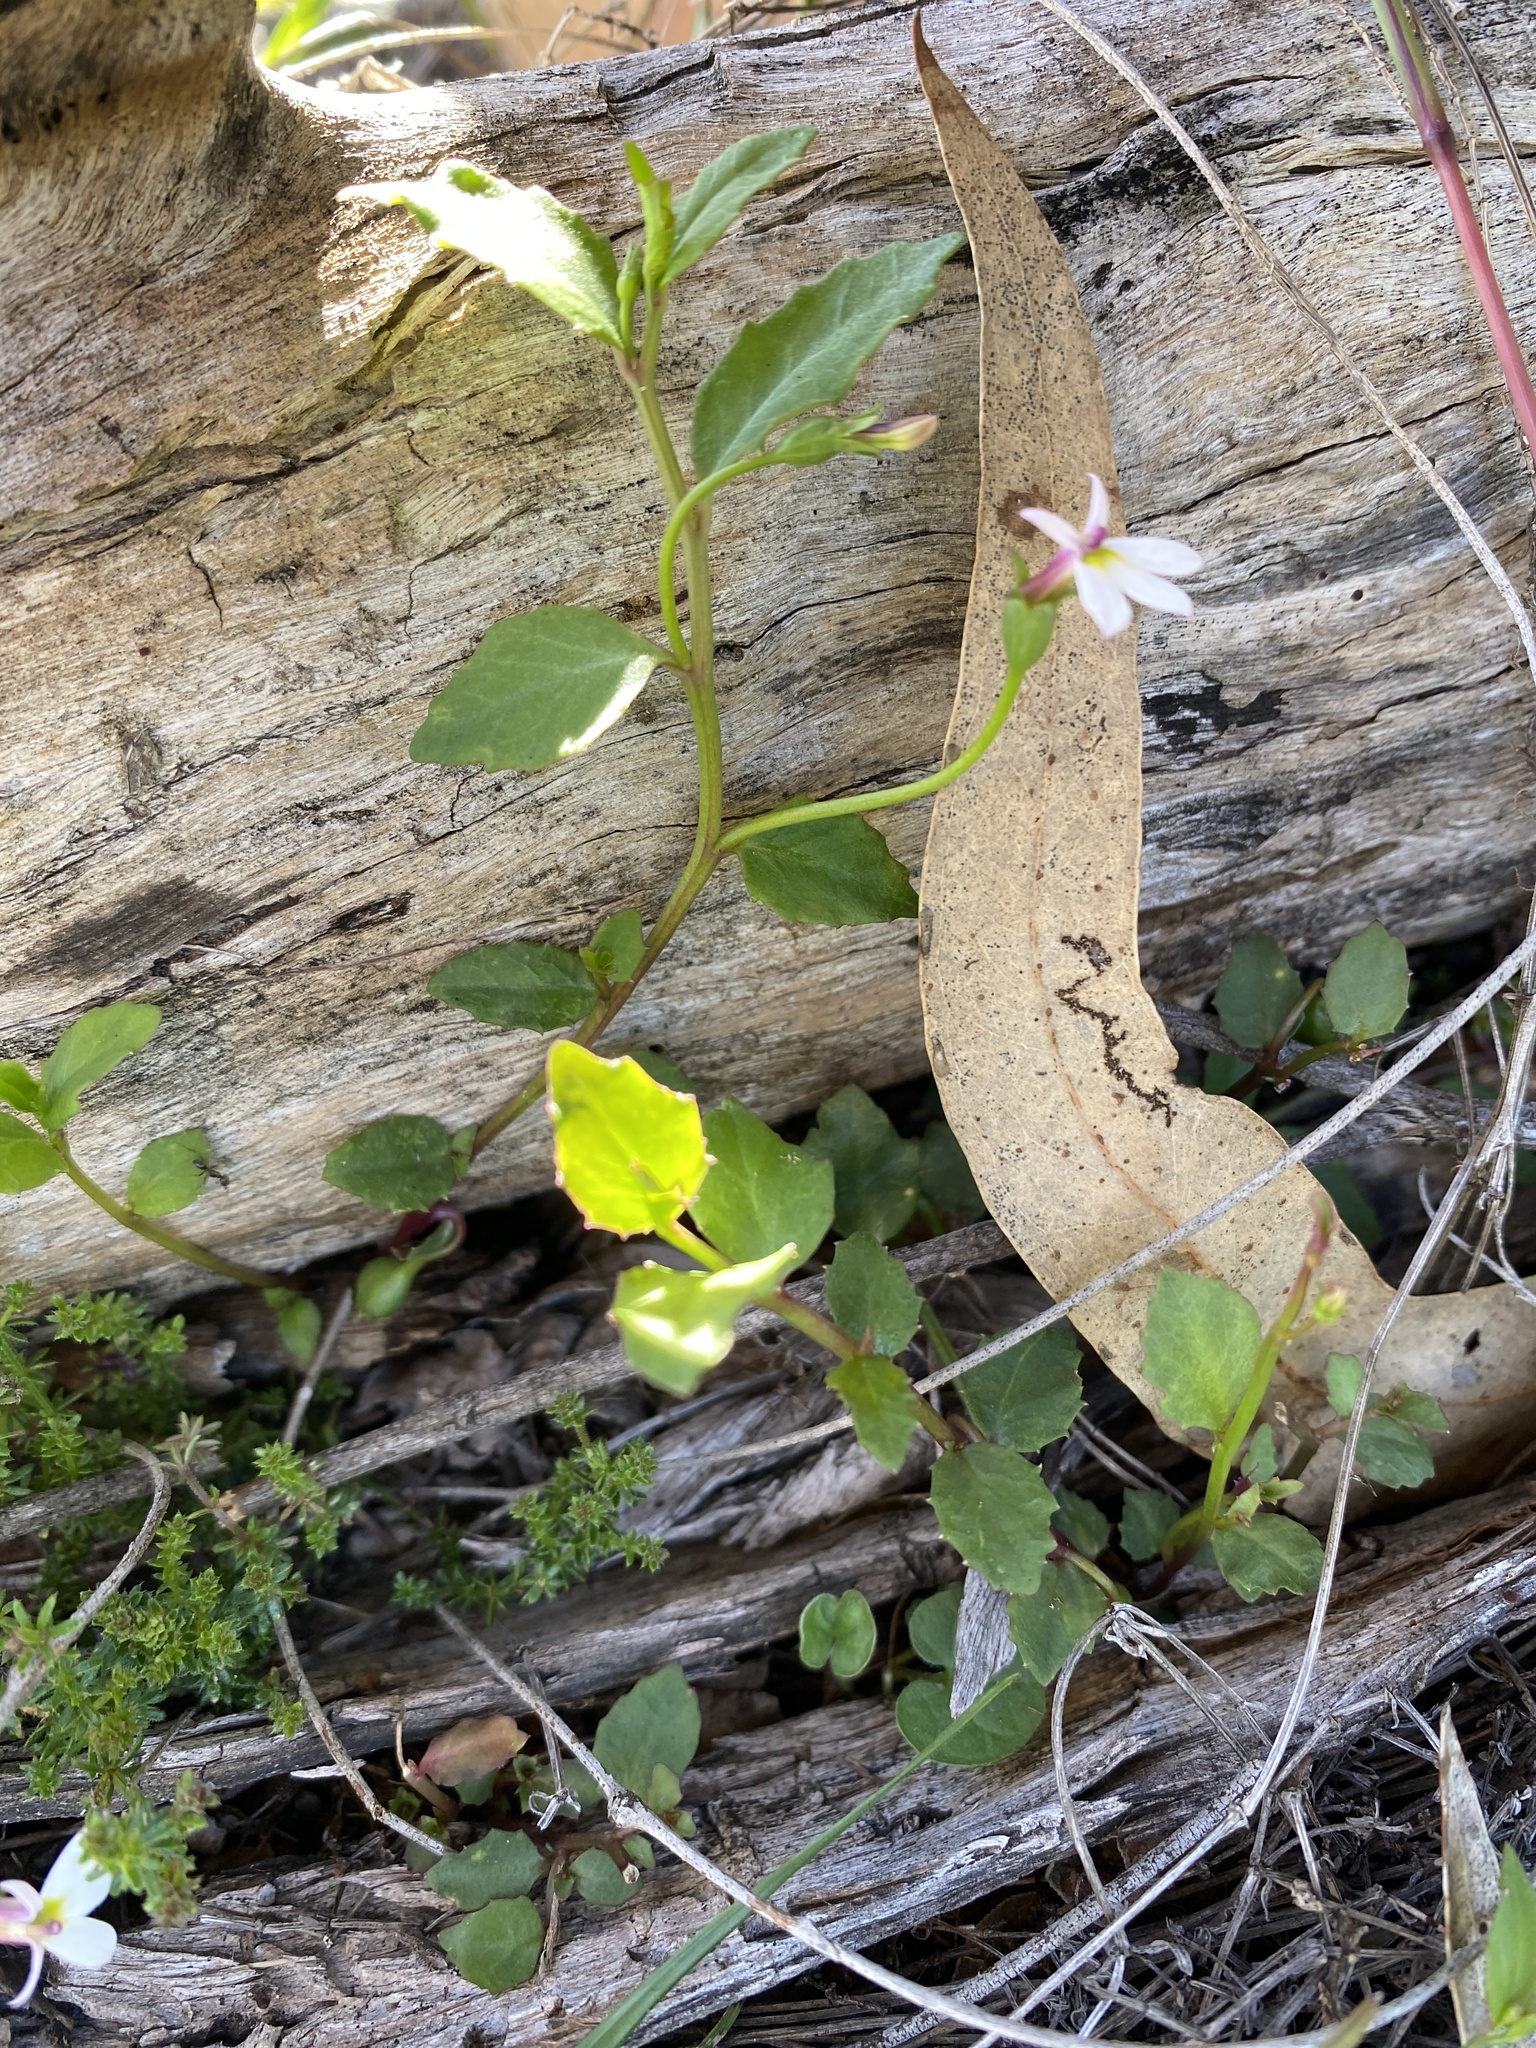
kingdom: Plantae
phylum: Tracheophyta
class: Magnoliopsida
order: Asterales
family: Campanulaceae
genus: Lobelia
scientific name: Lobelia purpurascens
